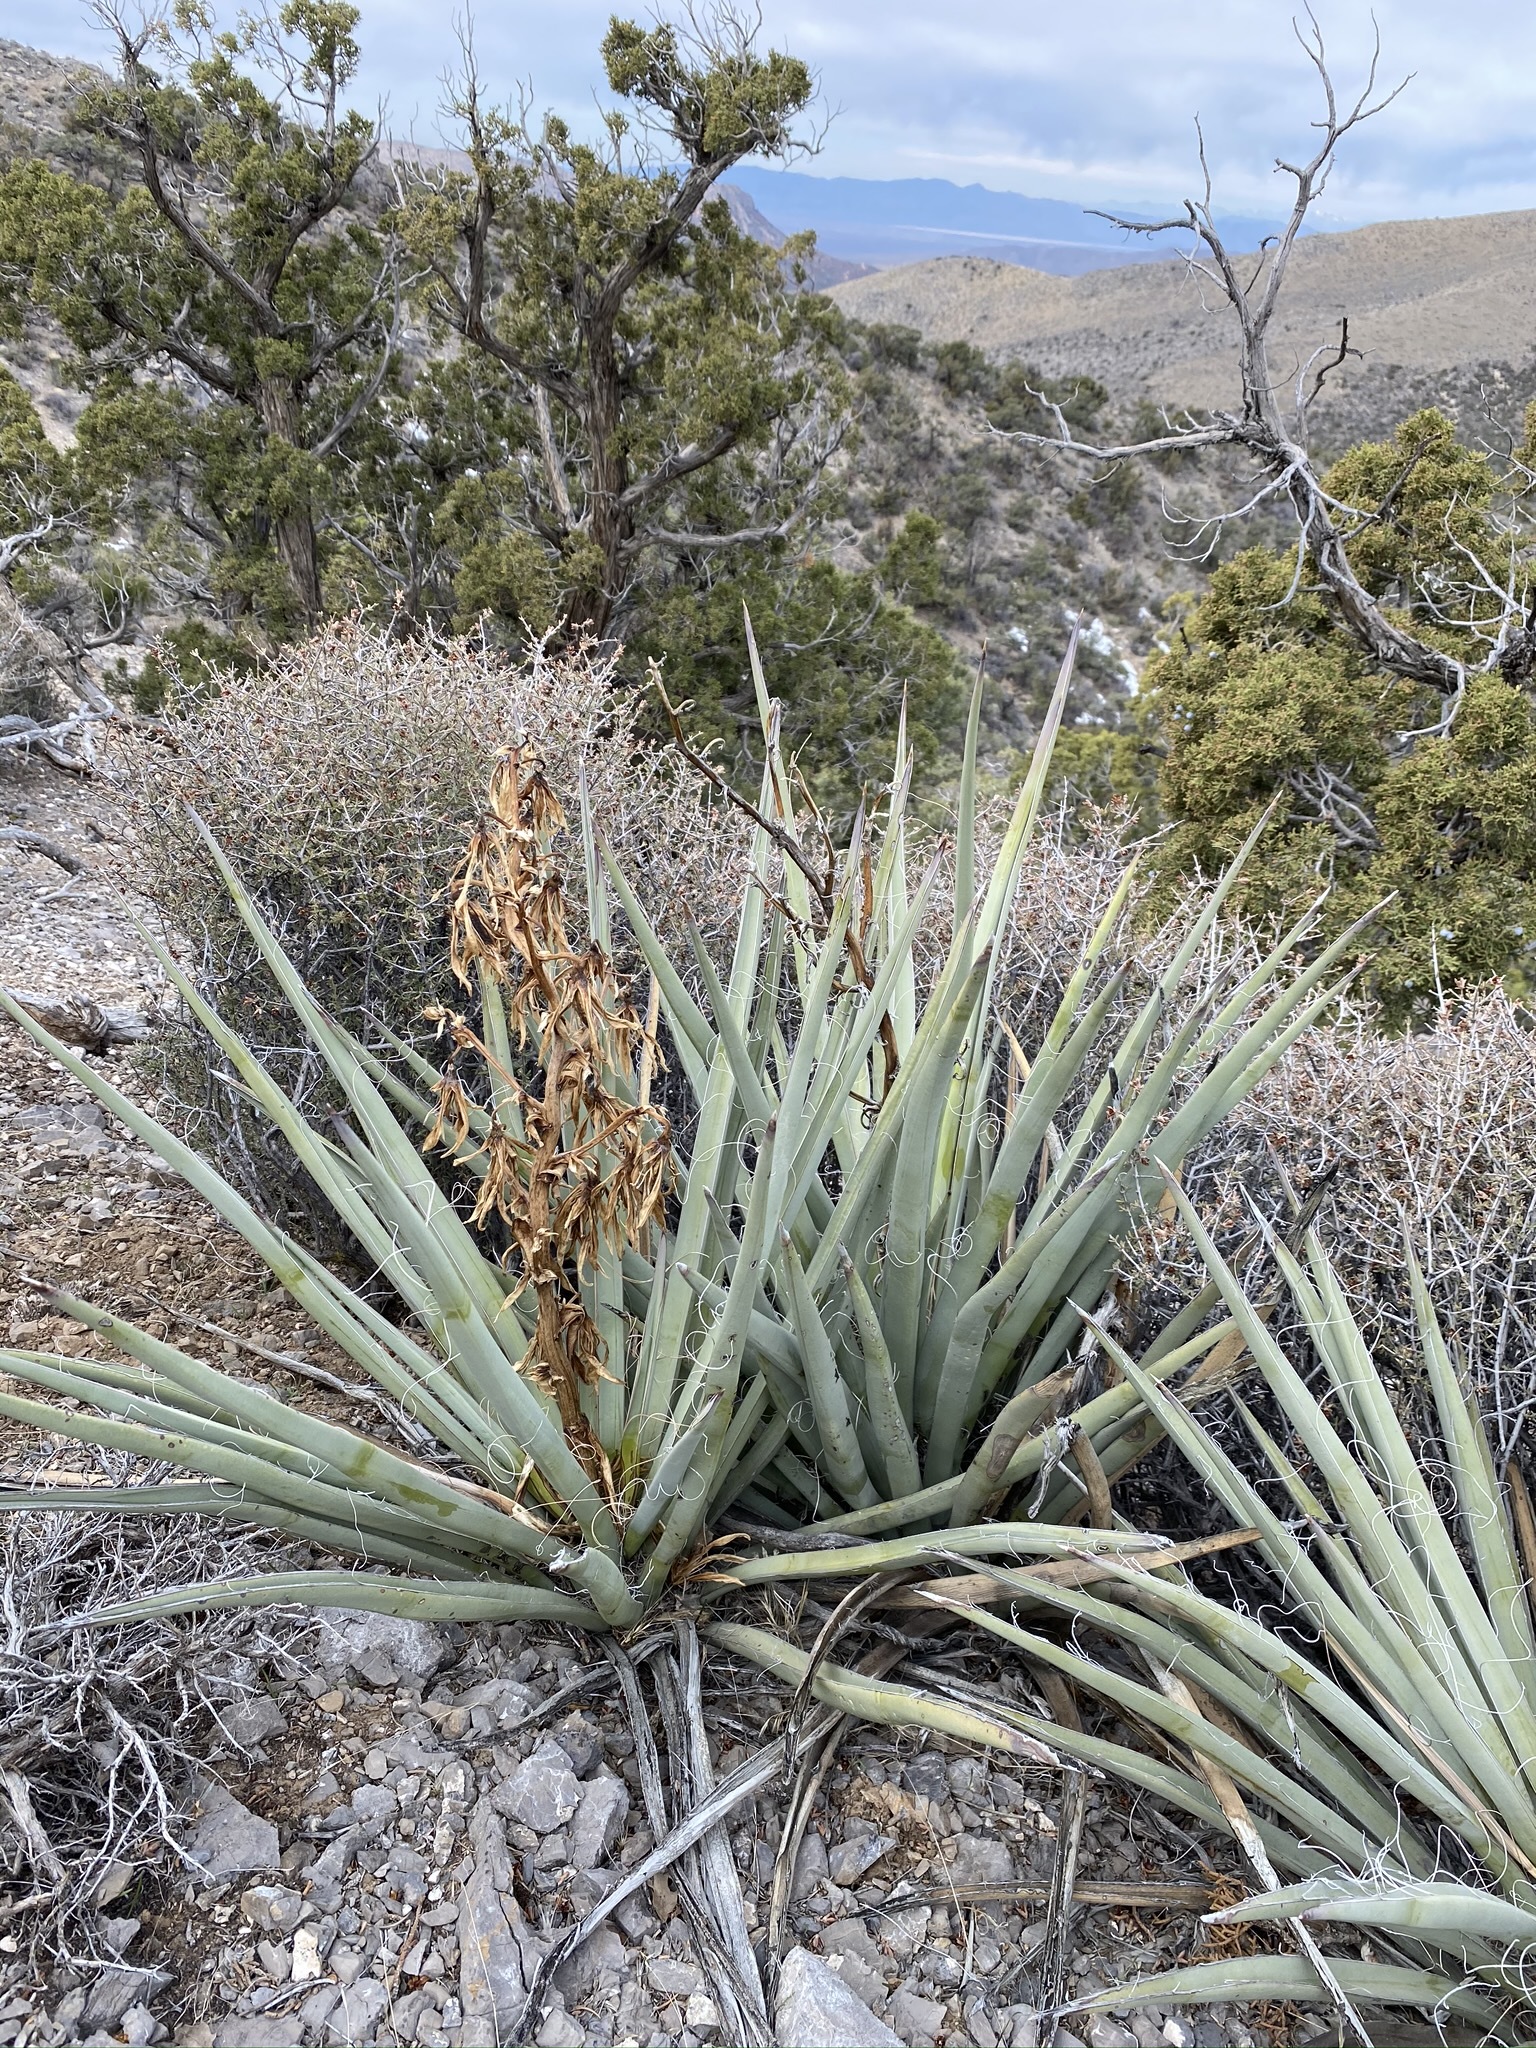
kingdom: Plantae
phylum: Tracheophyta
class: Liliopsida
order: Asparagales
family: Asparagaceae
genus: Yucca
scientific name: Yucca baccata
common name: Banana yucca
